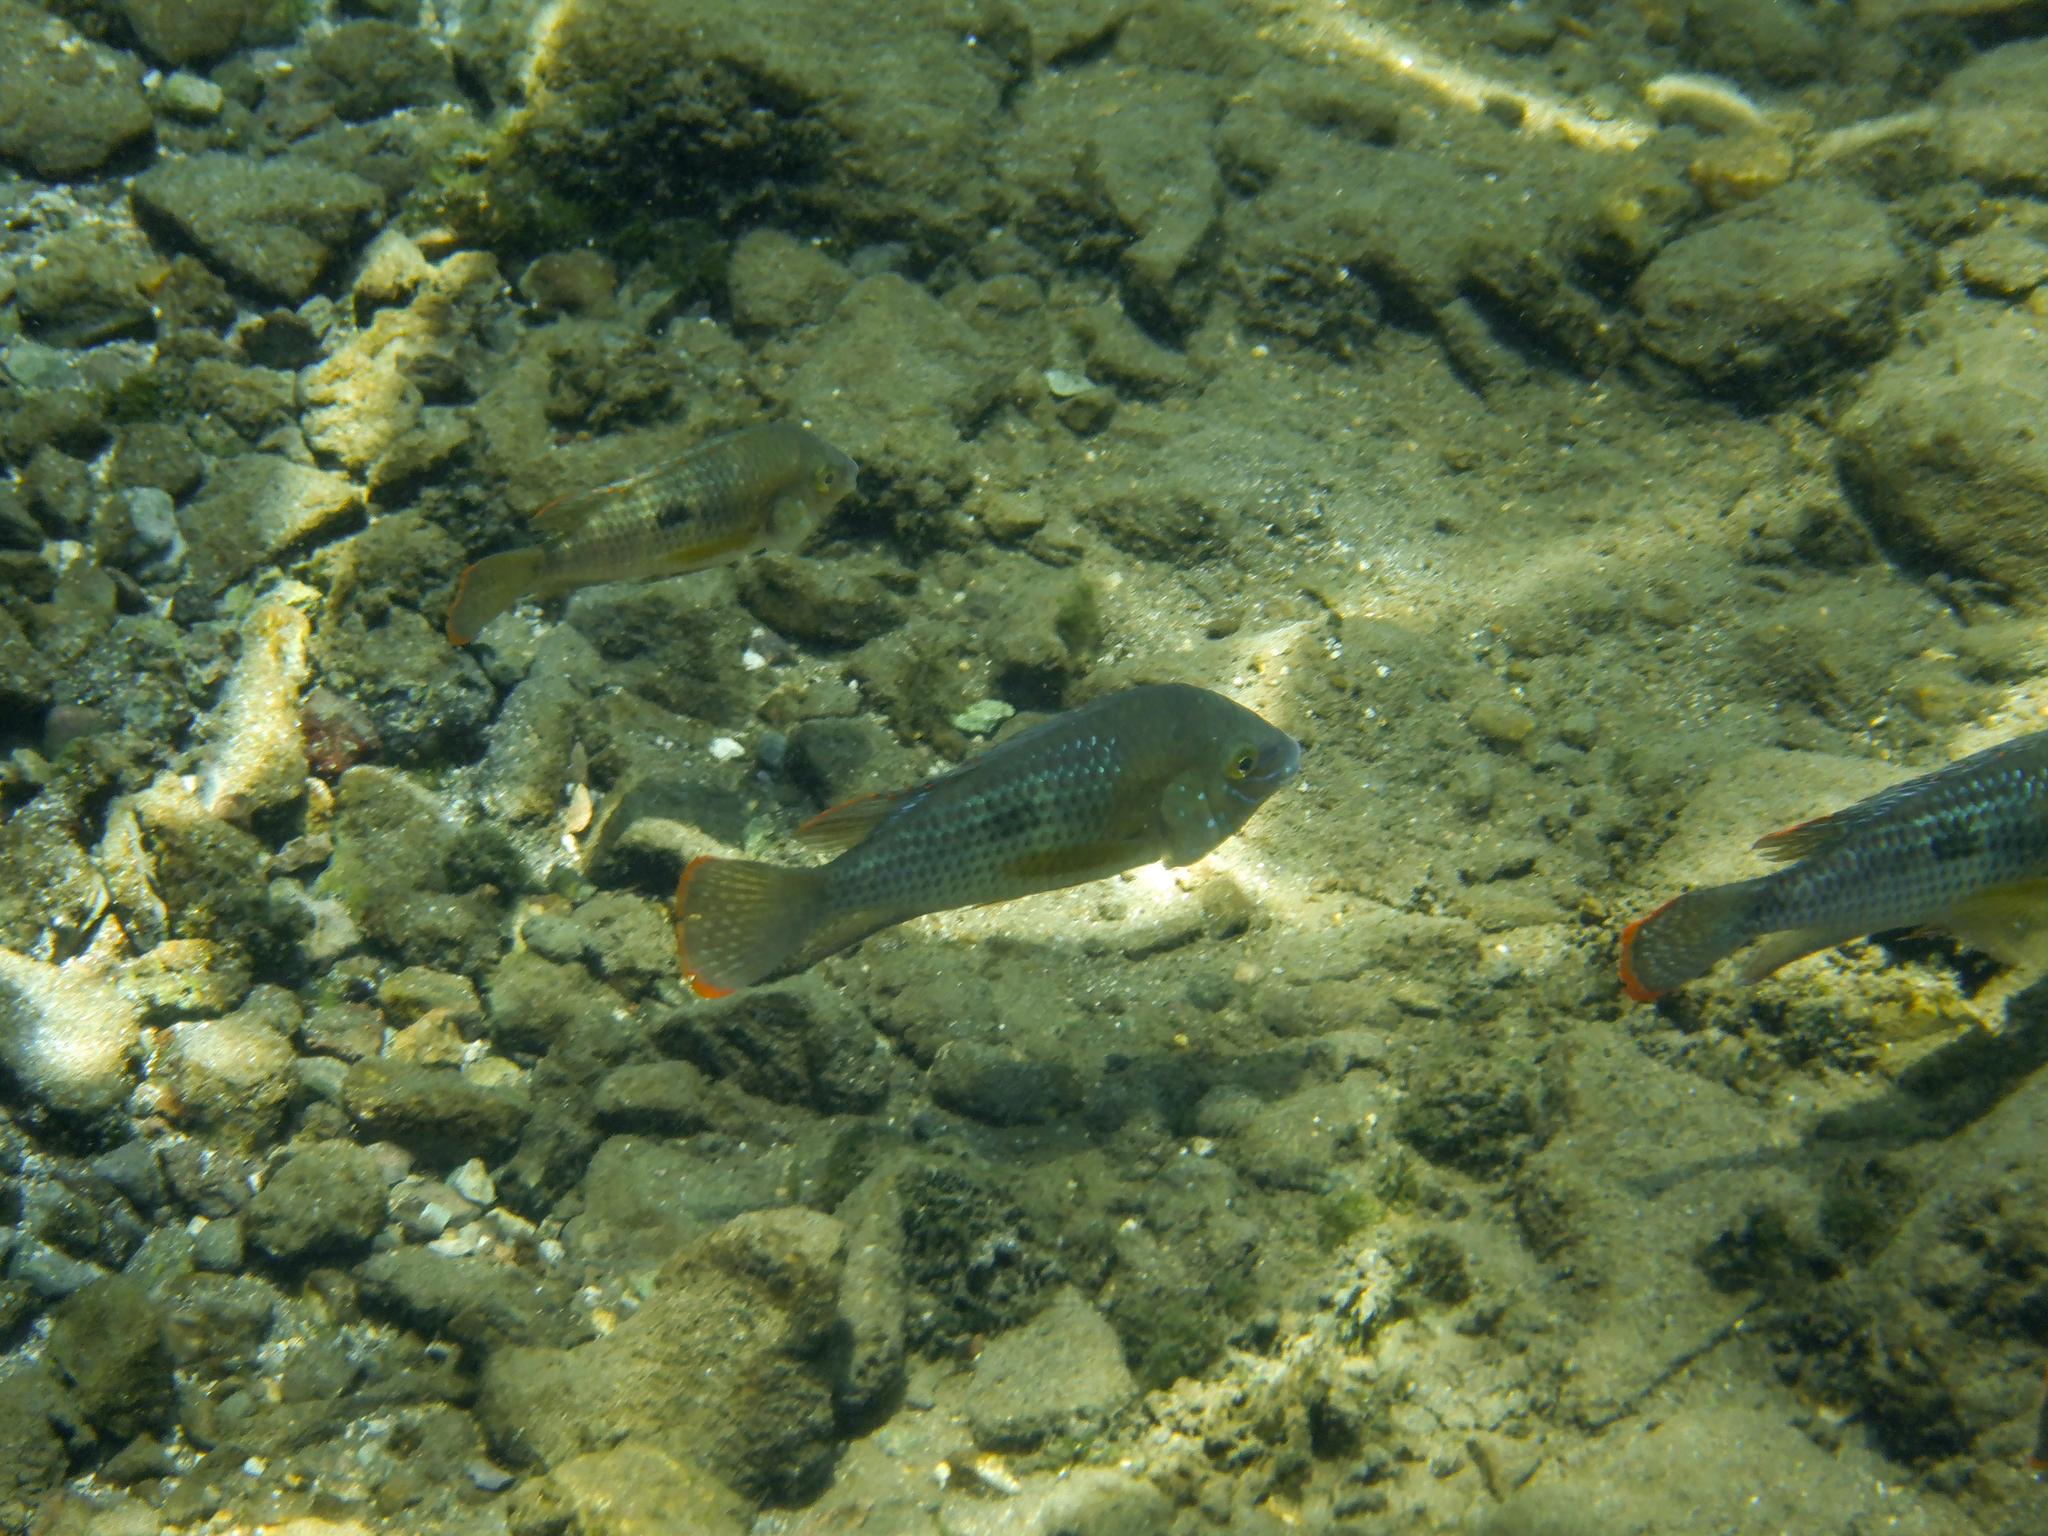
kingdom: Animalia
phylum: Chordata
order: Perciformes
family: Cichlidae
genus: Andinoacara
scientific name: Andinoacara rivulatus
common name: Green terror
